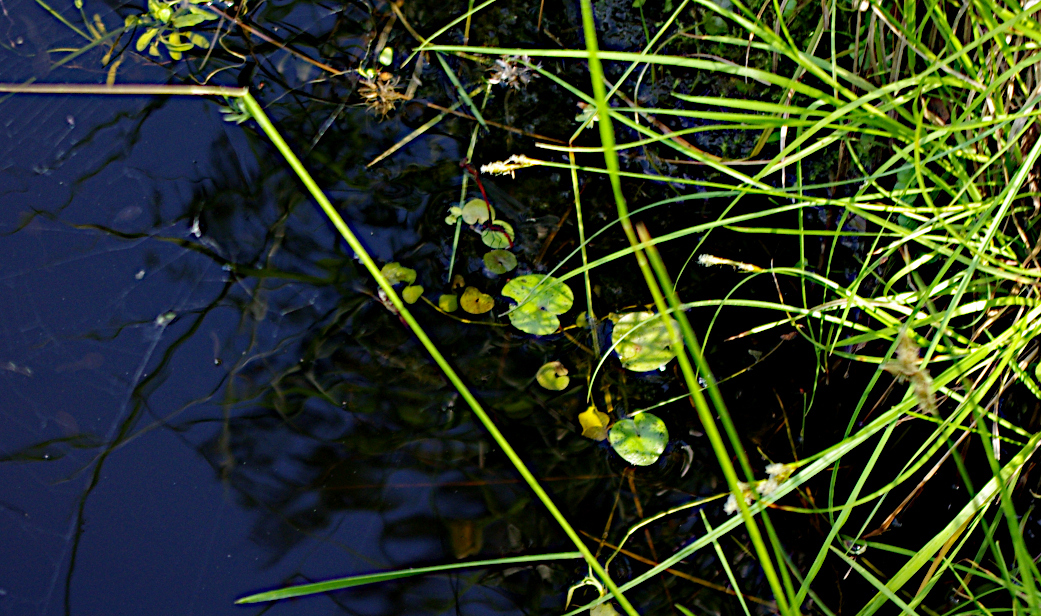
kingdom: Plantae
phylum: Tracheophyta
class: Liliopsida
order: Alismatales
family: Hydrocharitaceae
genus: Hydrocharis
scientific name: Hydrocharis morsus-ranae
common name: Frogbit
